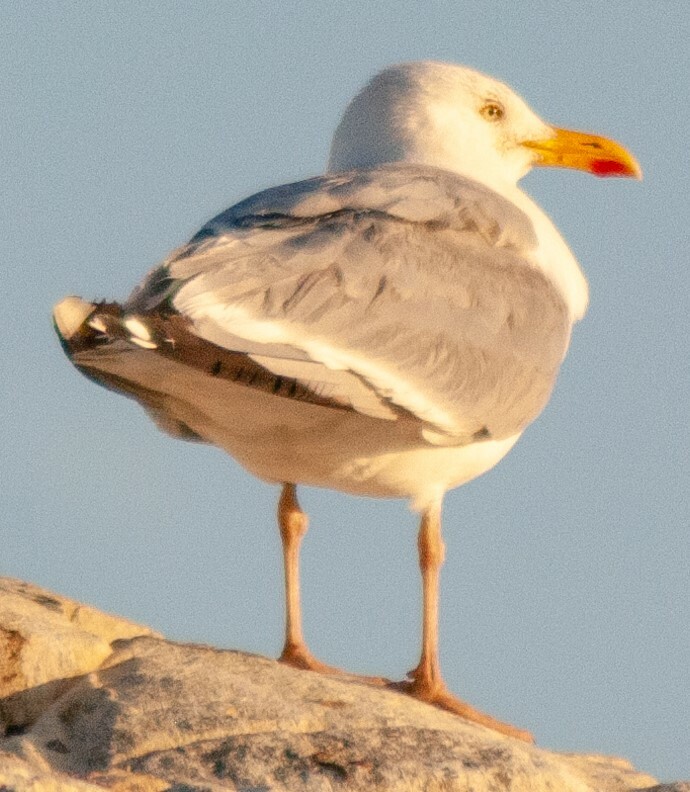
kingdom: Animalia
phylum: Chordata
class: Aves
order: Charadriiformes
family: Laridae
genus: Larus
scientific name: Larus argentatus
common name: Herring gull
